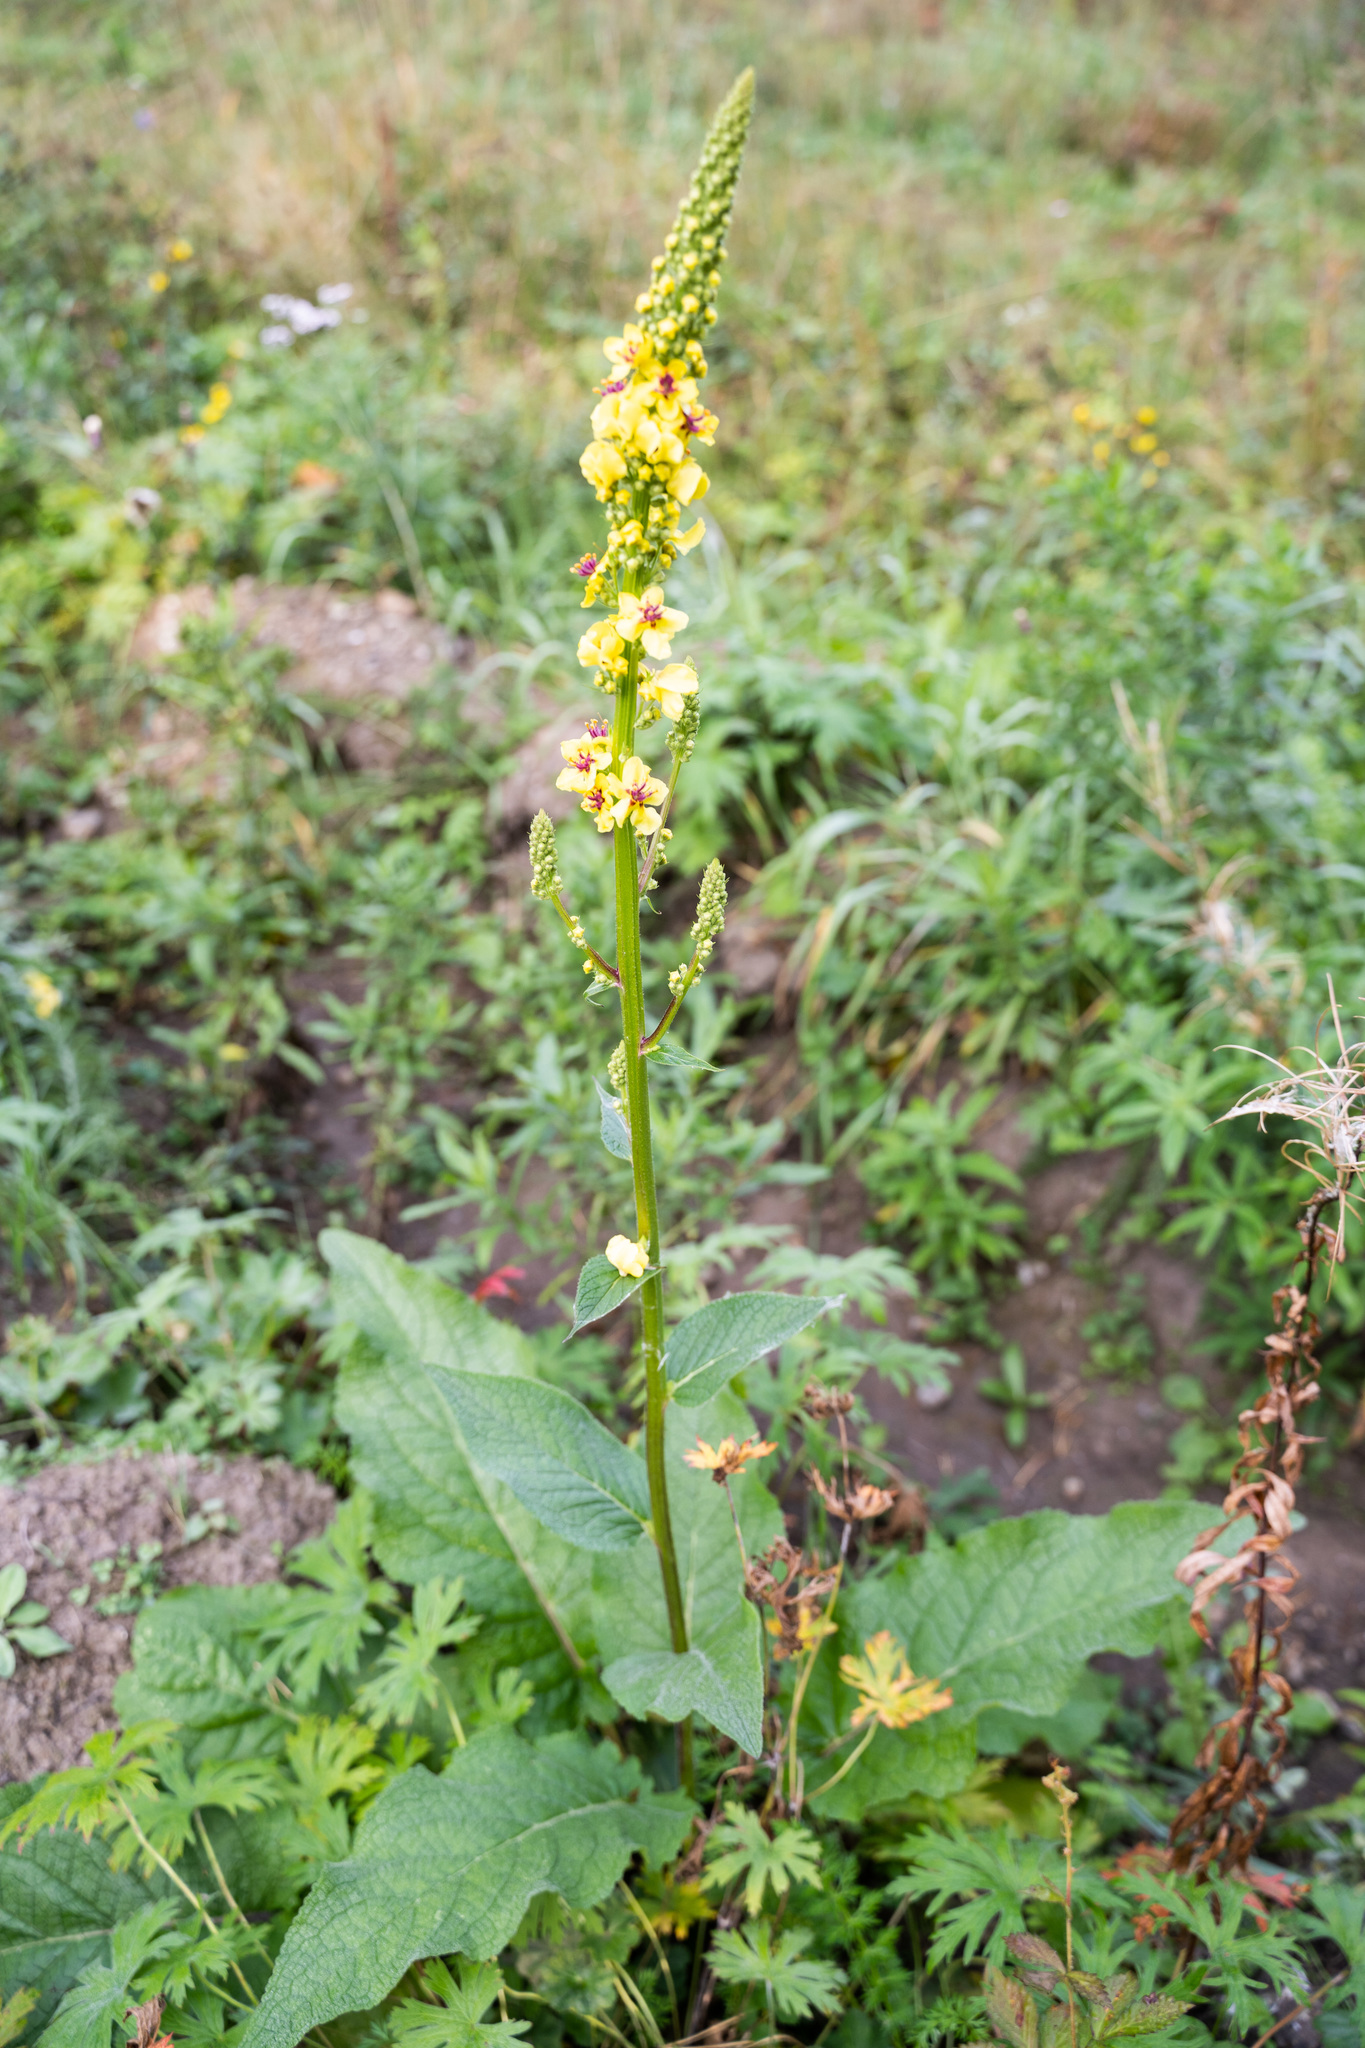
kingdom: Plantae
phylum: Tracheophyta
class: Magnoliopsida
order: Lamiales
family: Scrophulariaceae
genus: Verbascum
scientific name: Verbascum nigrum
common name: Dark mullein
